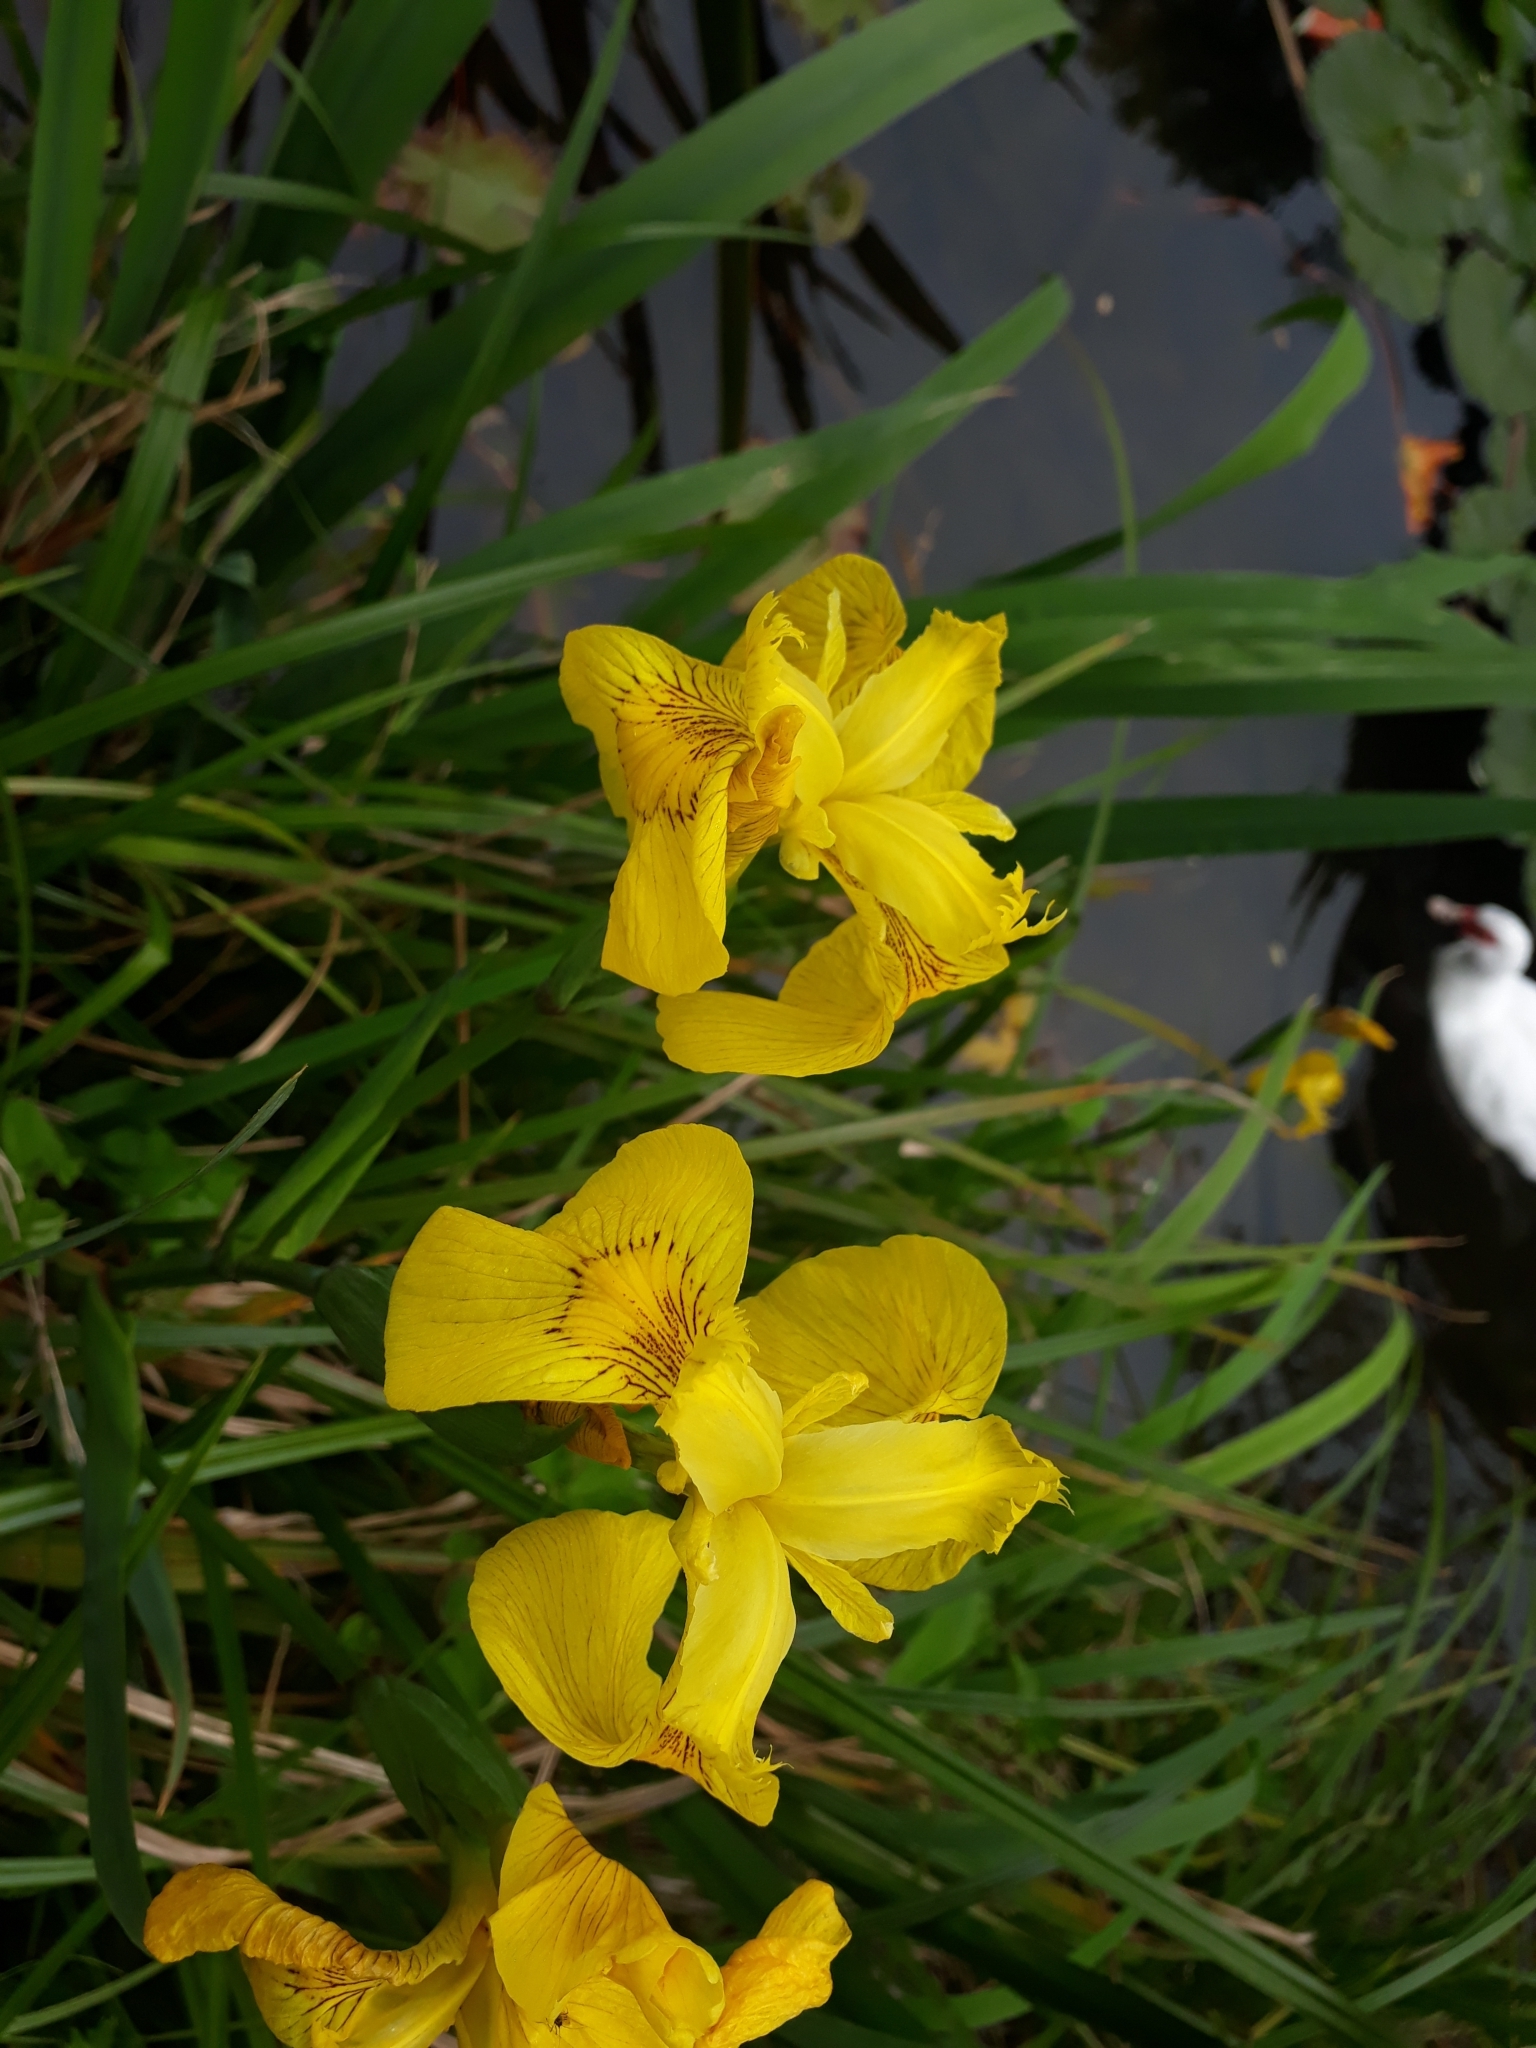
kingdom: Plantae
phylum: Tracheophyta
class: Liliopsida
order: Asparagales
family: Iridaceae
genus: Iris
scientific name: Iris pseudacorus
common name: Yellow flag
